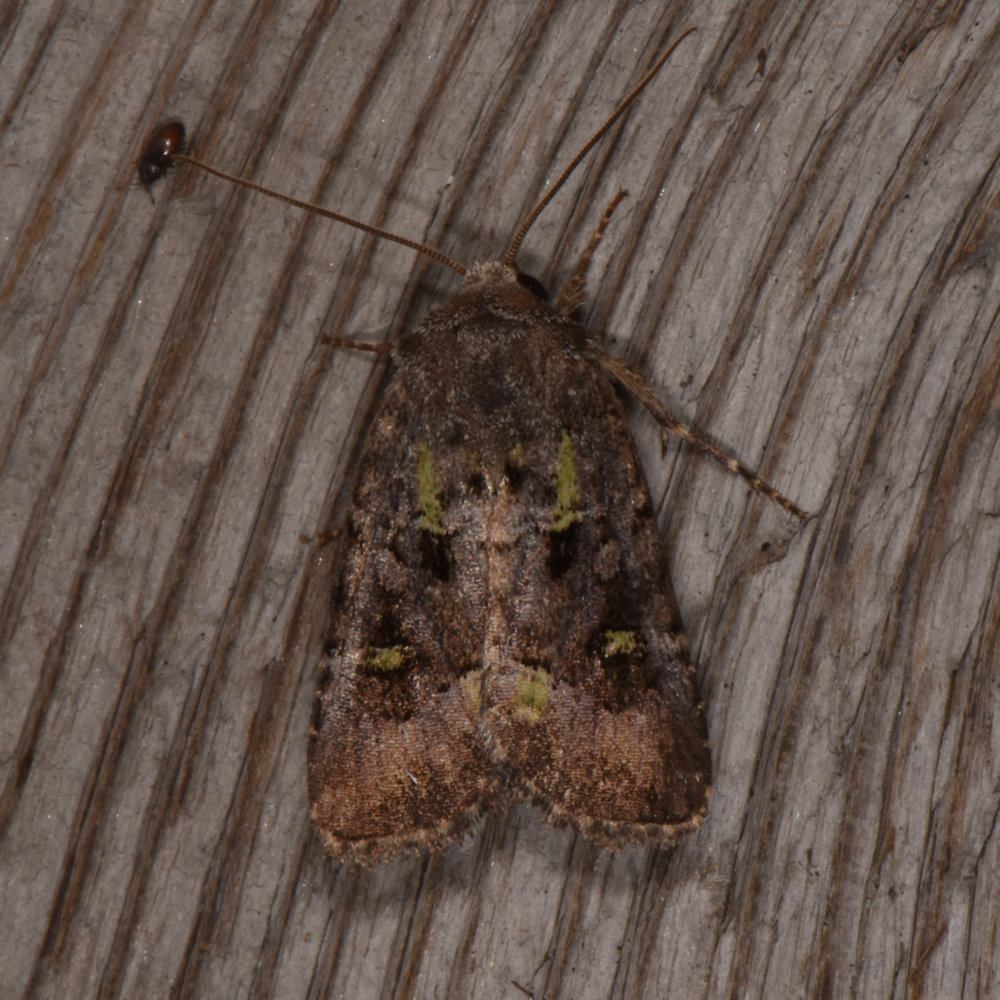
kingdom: Animalia
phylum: Arthropoda
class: Insecta
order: Lepidoptera
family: Noctuidae
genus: Lacinipolia
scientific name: Lacinipolia renigera
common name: Kidney-spotted minor
